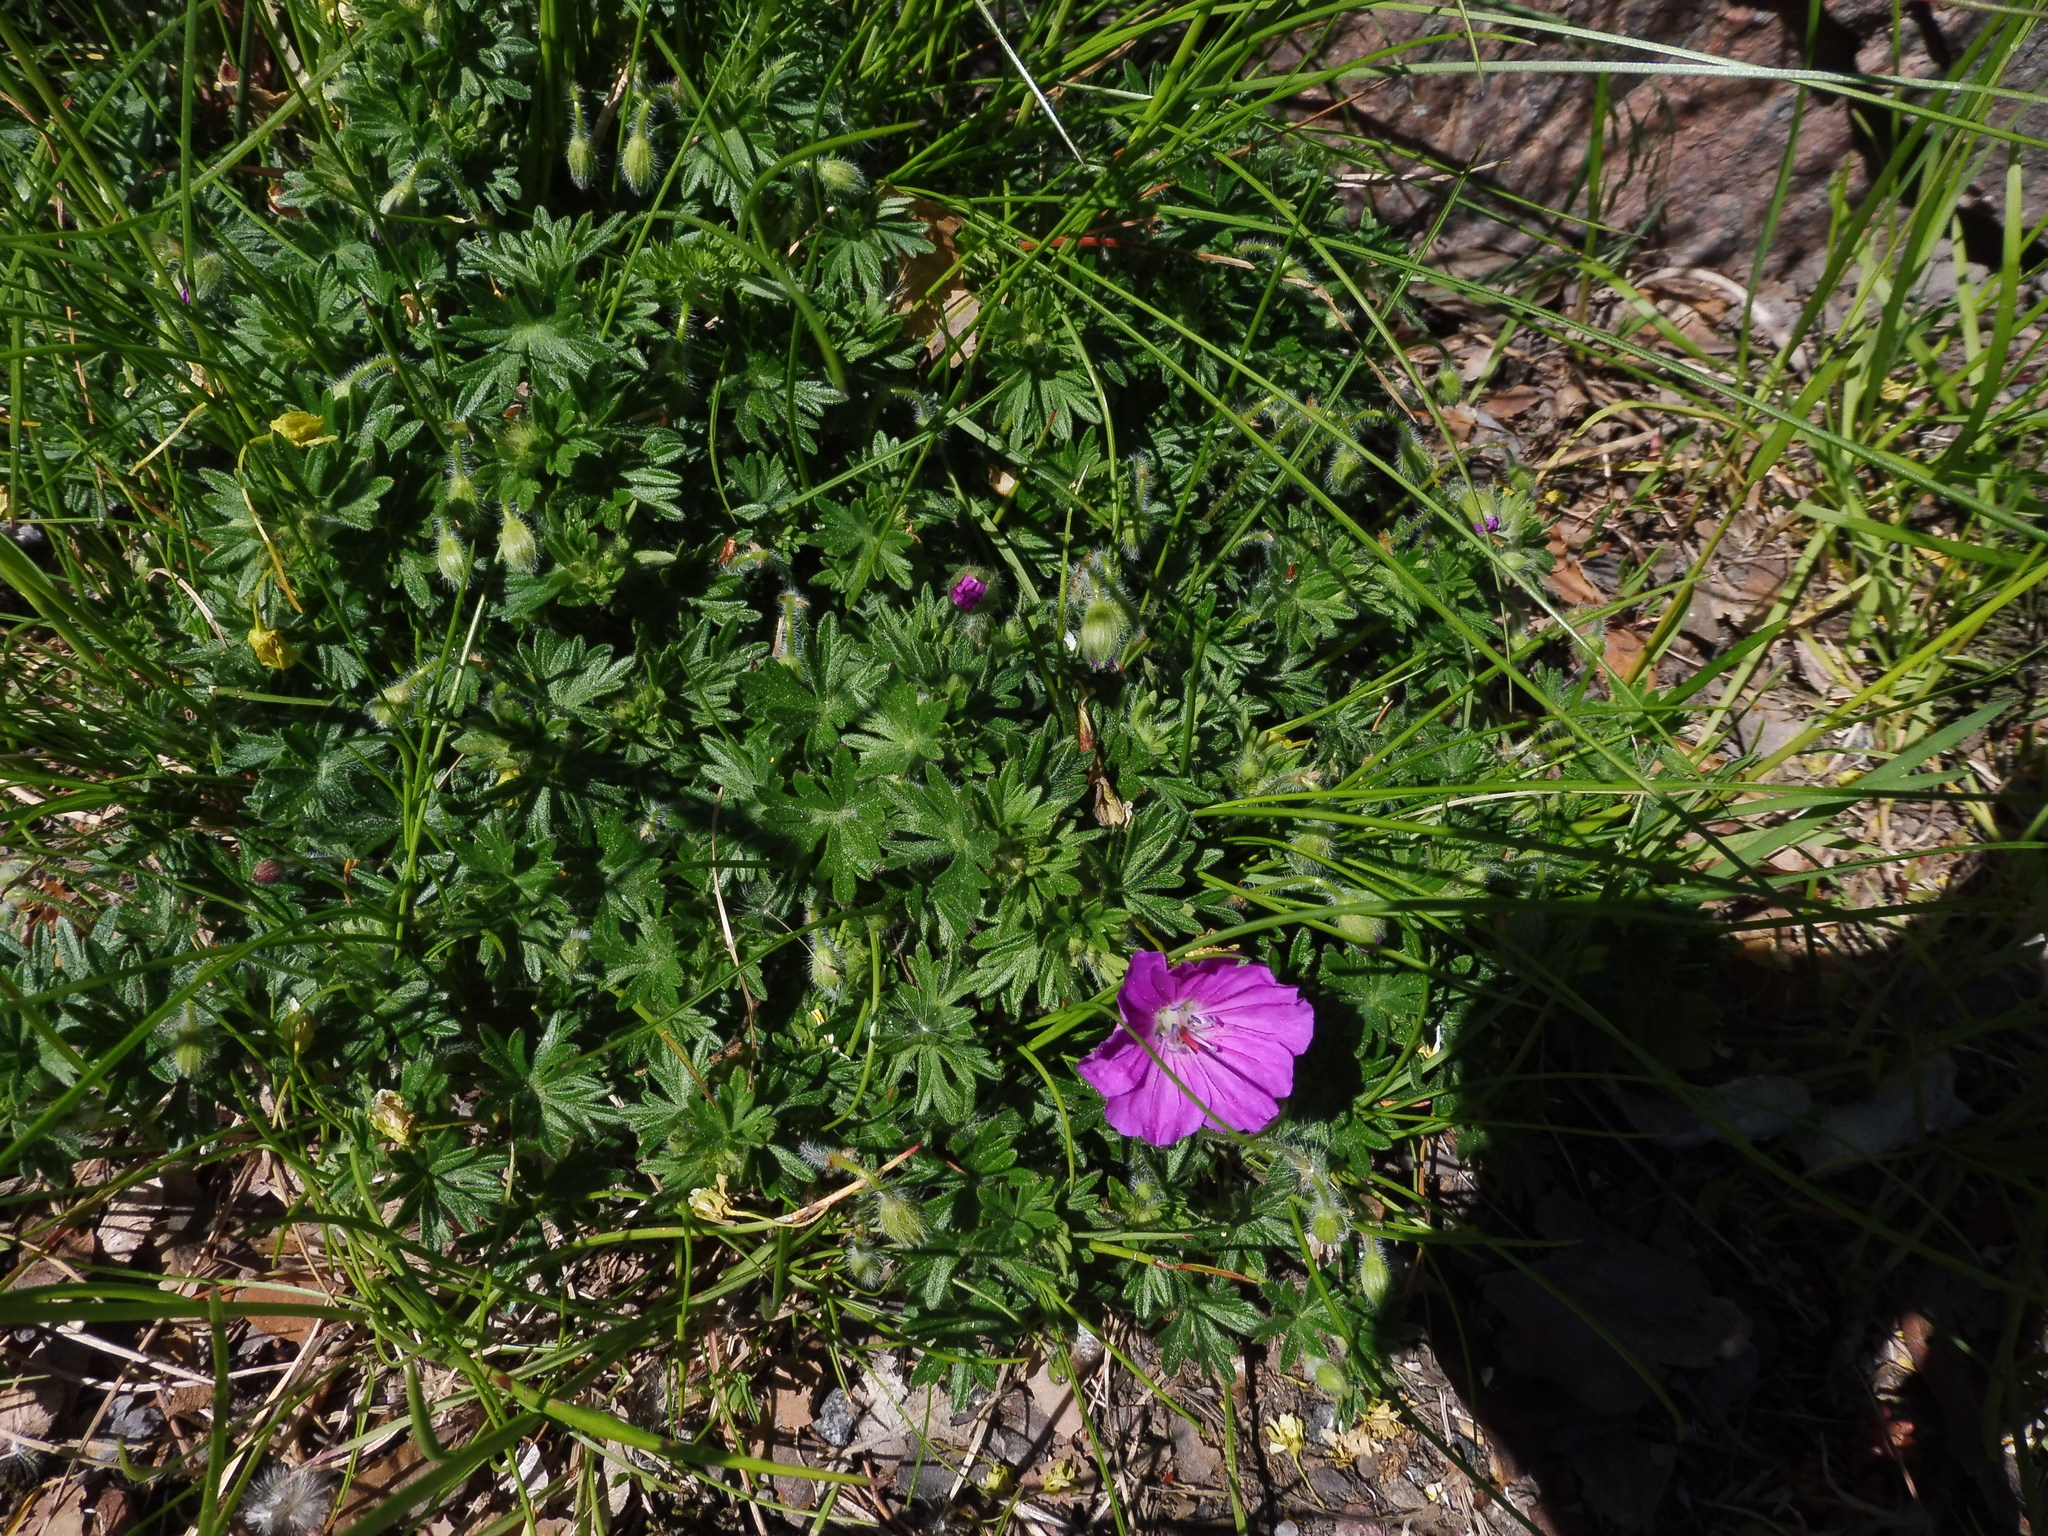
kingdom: Plantae
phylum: Tracheophyta
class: Magnoliopsida
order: Geraniales
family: Geraniaceae
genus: Geranium
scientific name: Geranium sanguineum
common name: Bloody crane's-bill
